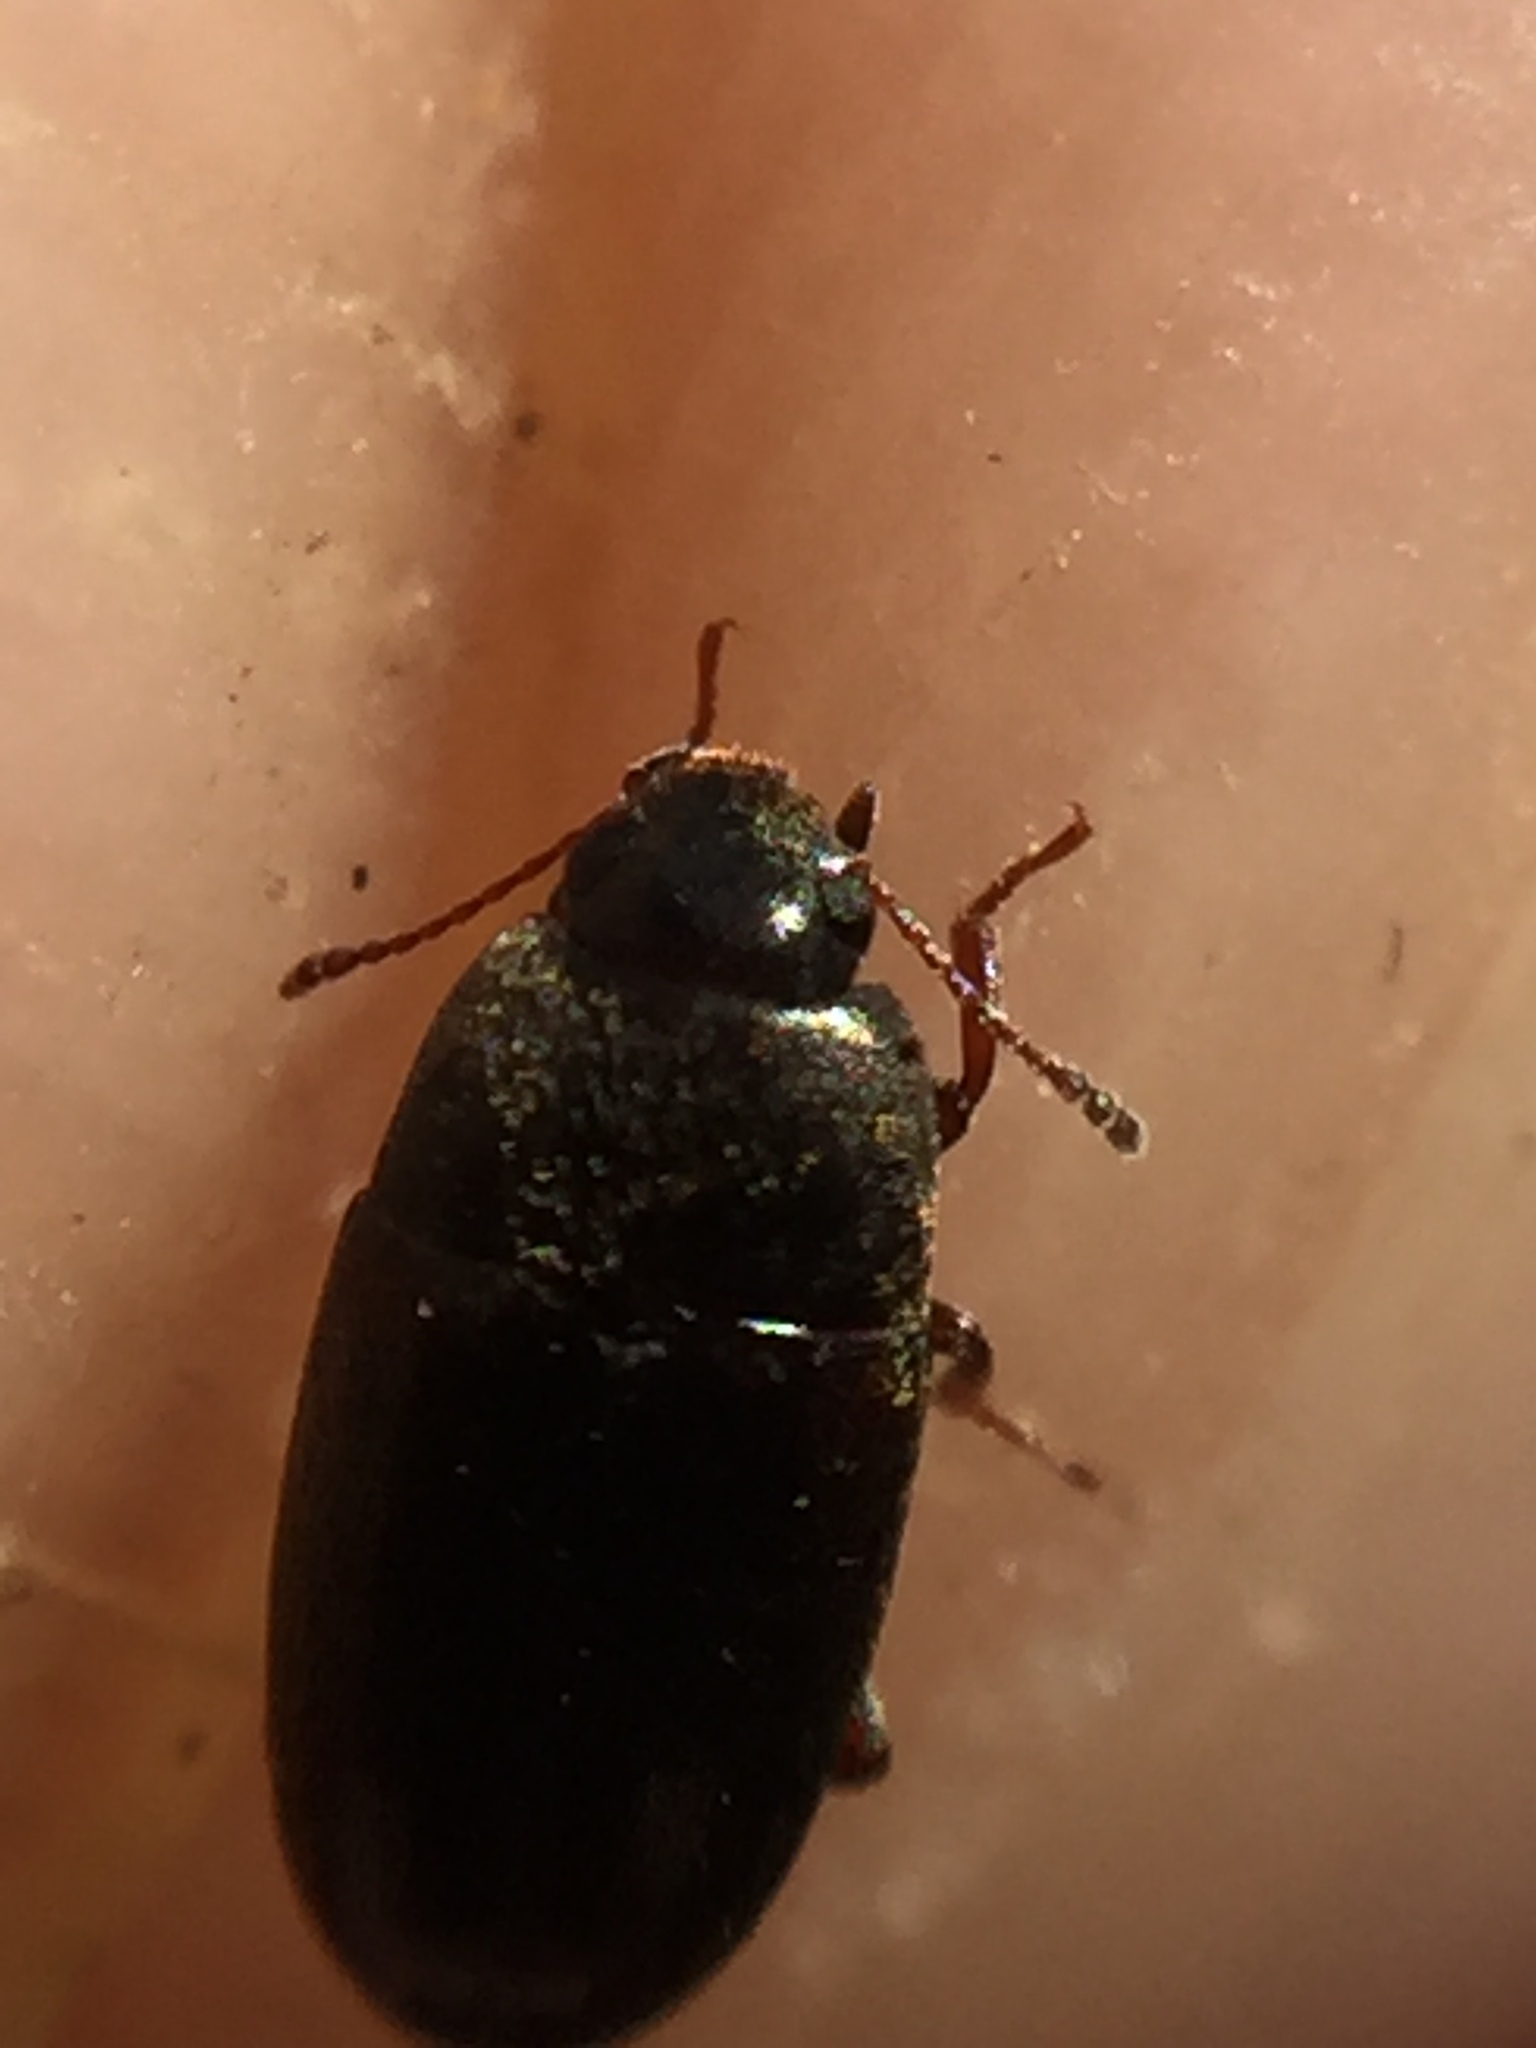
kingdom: Animalia
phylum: Arthropoda
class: Insecta
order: Coleoptera
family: Archeocrypticidae
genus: Enneboeus
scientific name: Enneboeus
